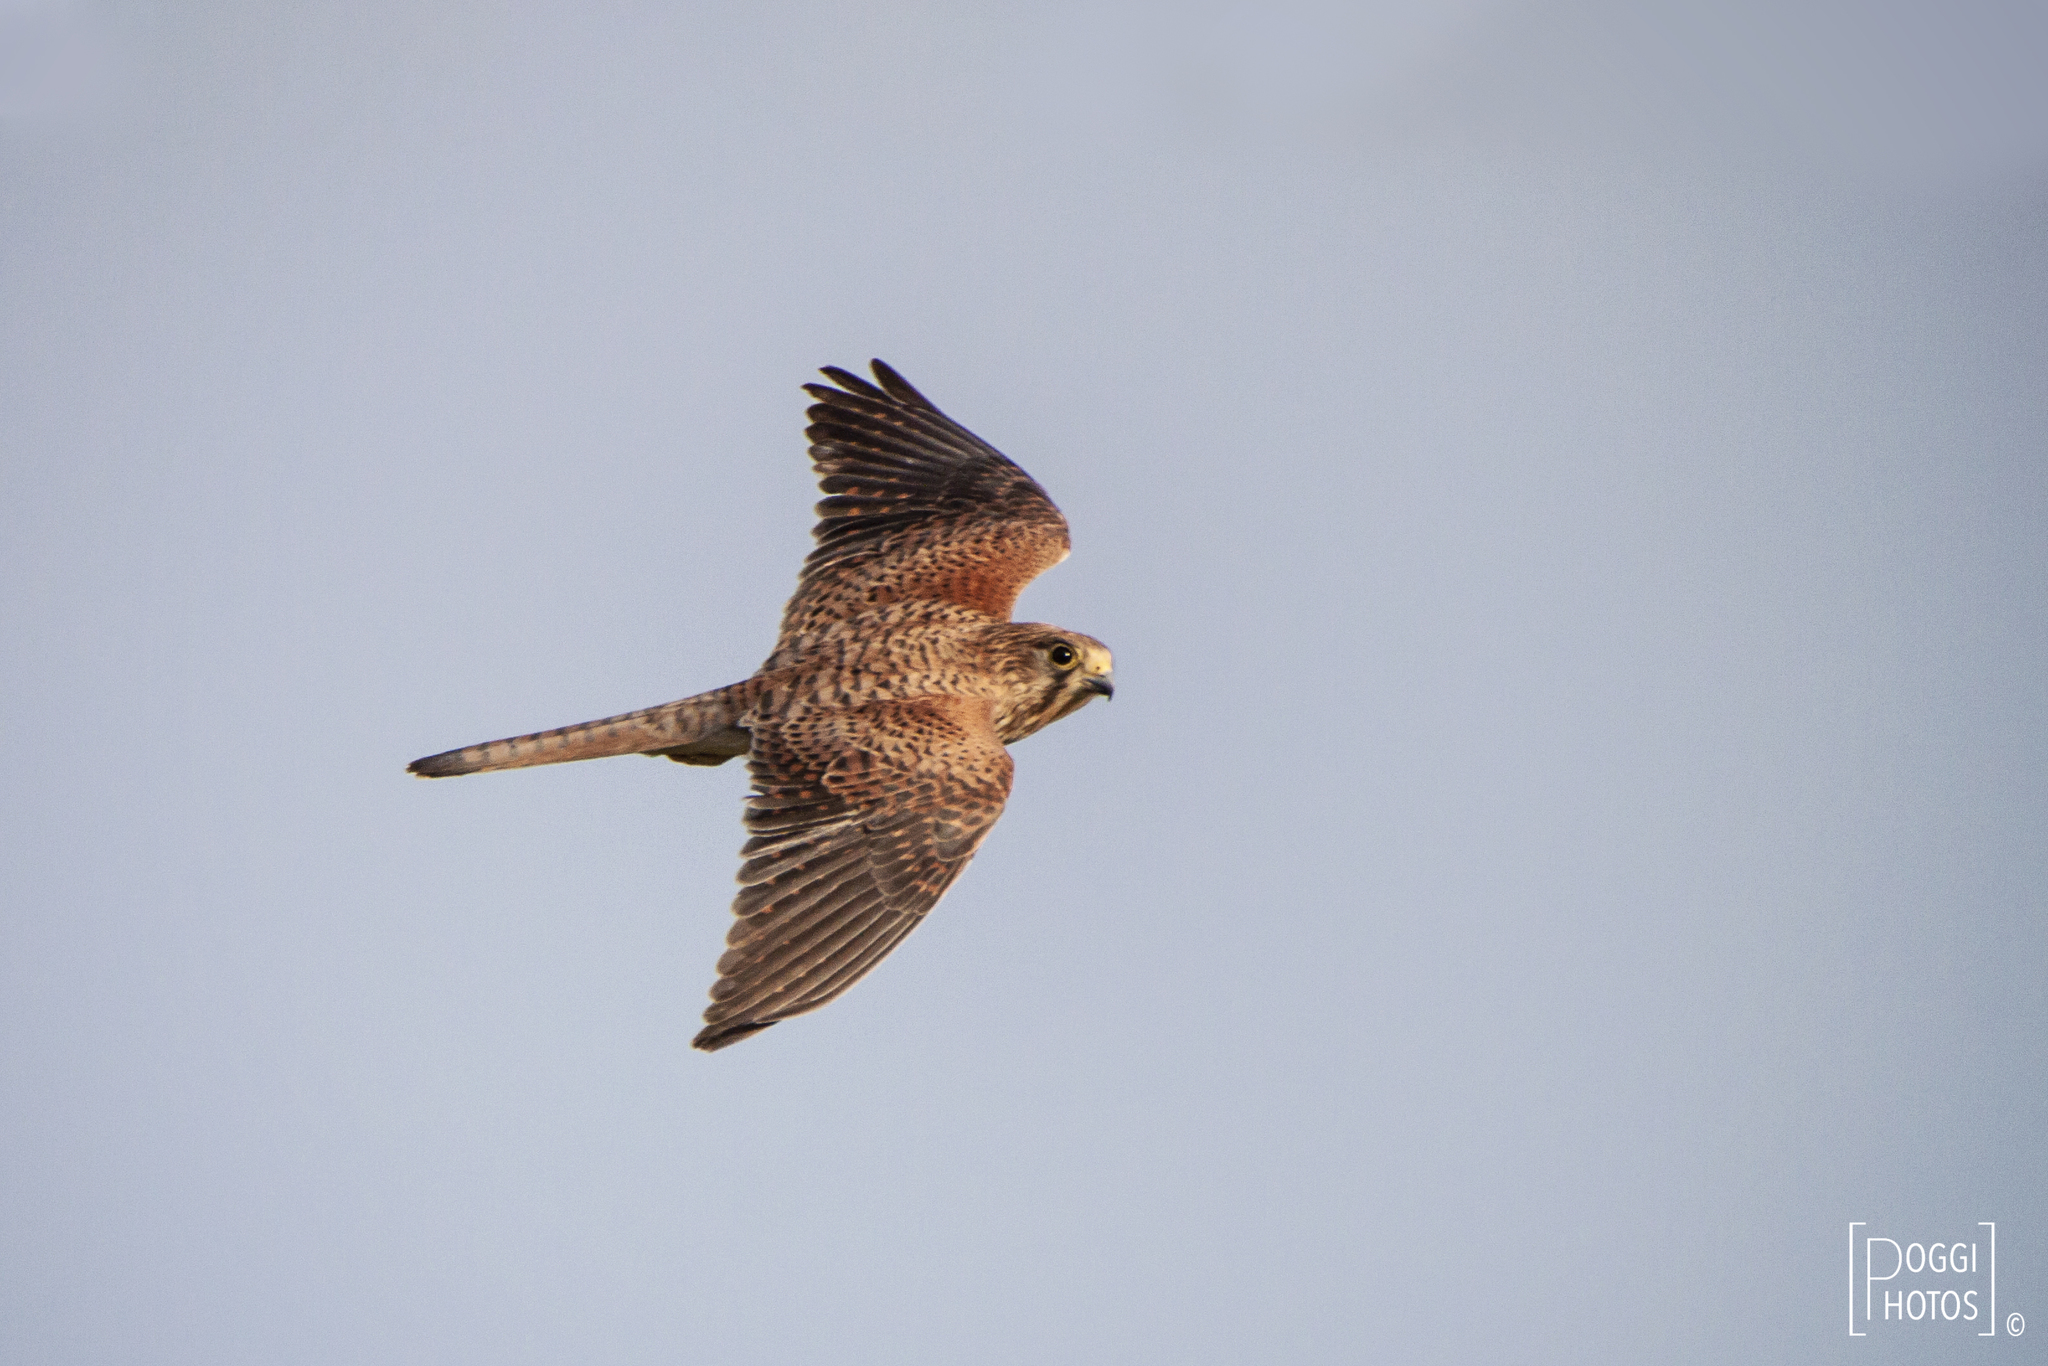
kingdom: Animalia
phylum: Chordata
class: Aves
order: Falconiformes
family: Falconidae
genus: Falco
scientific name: Falco tinnunculus
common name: Common kestrel
